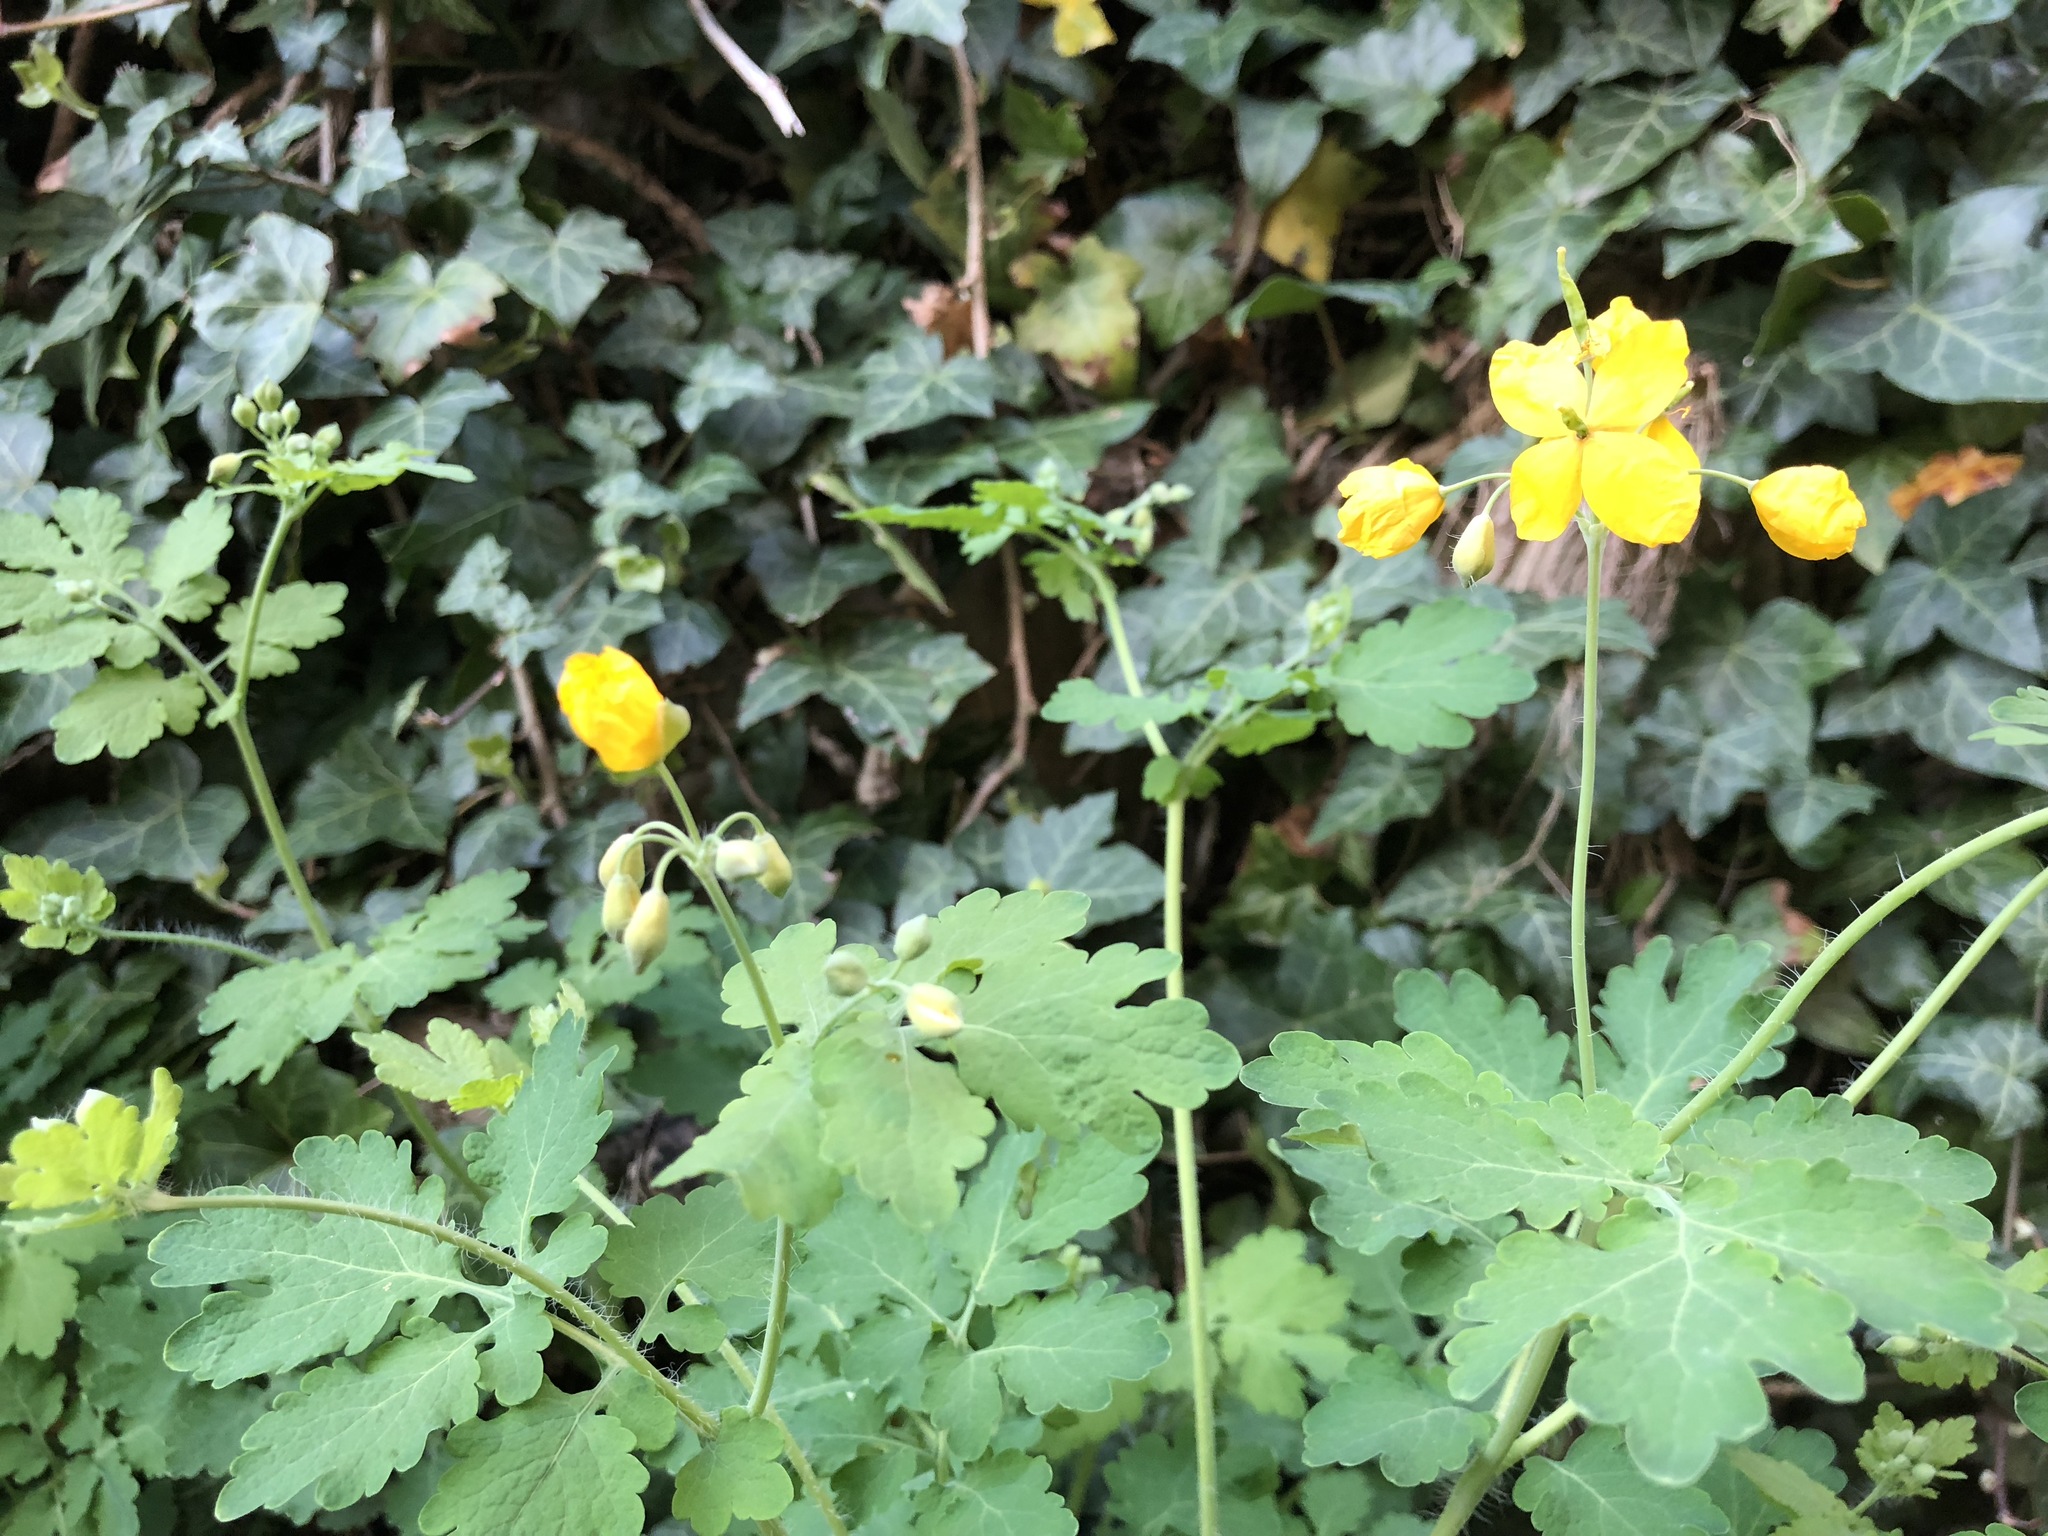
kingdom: Plantae
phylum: Tracheophyta
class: Magnoliopsida
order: Ranunculales
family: Papaveraceae
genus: Chelidonium
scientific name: Chelidonium majus
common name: Greater celandine
